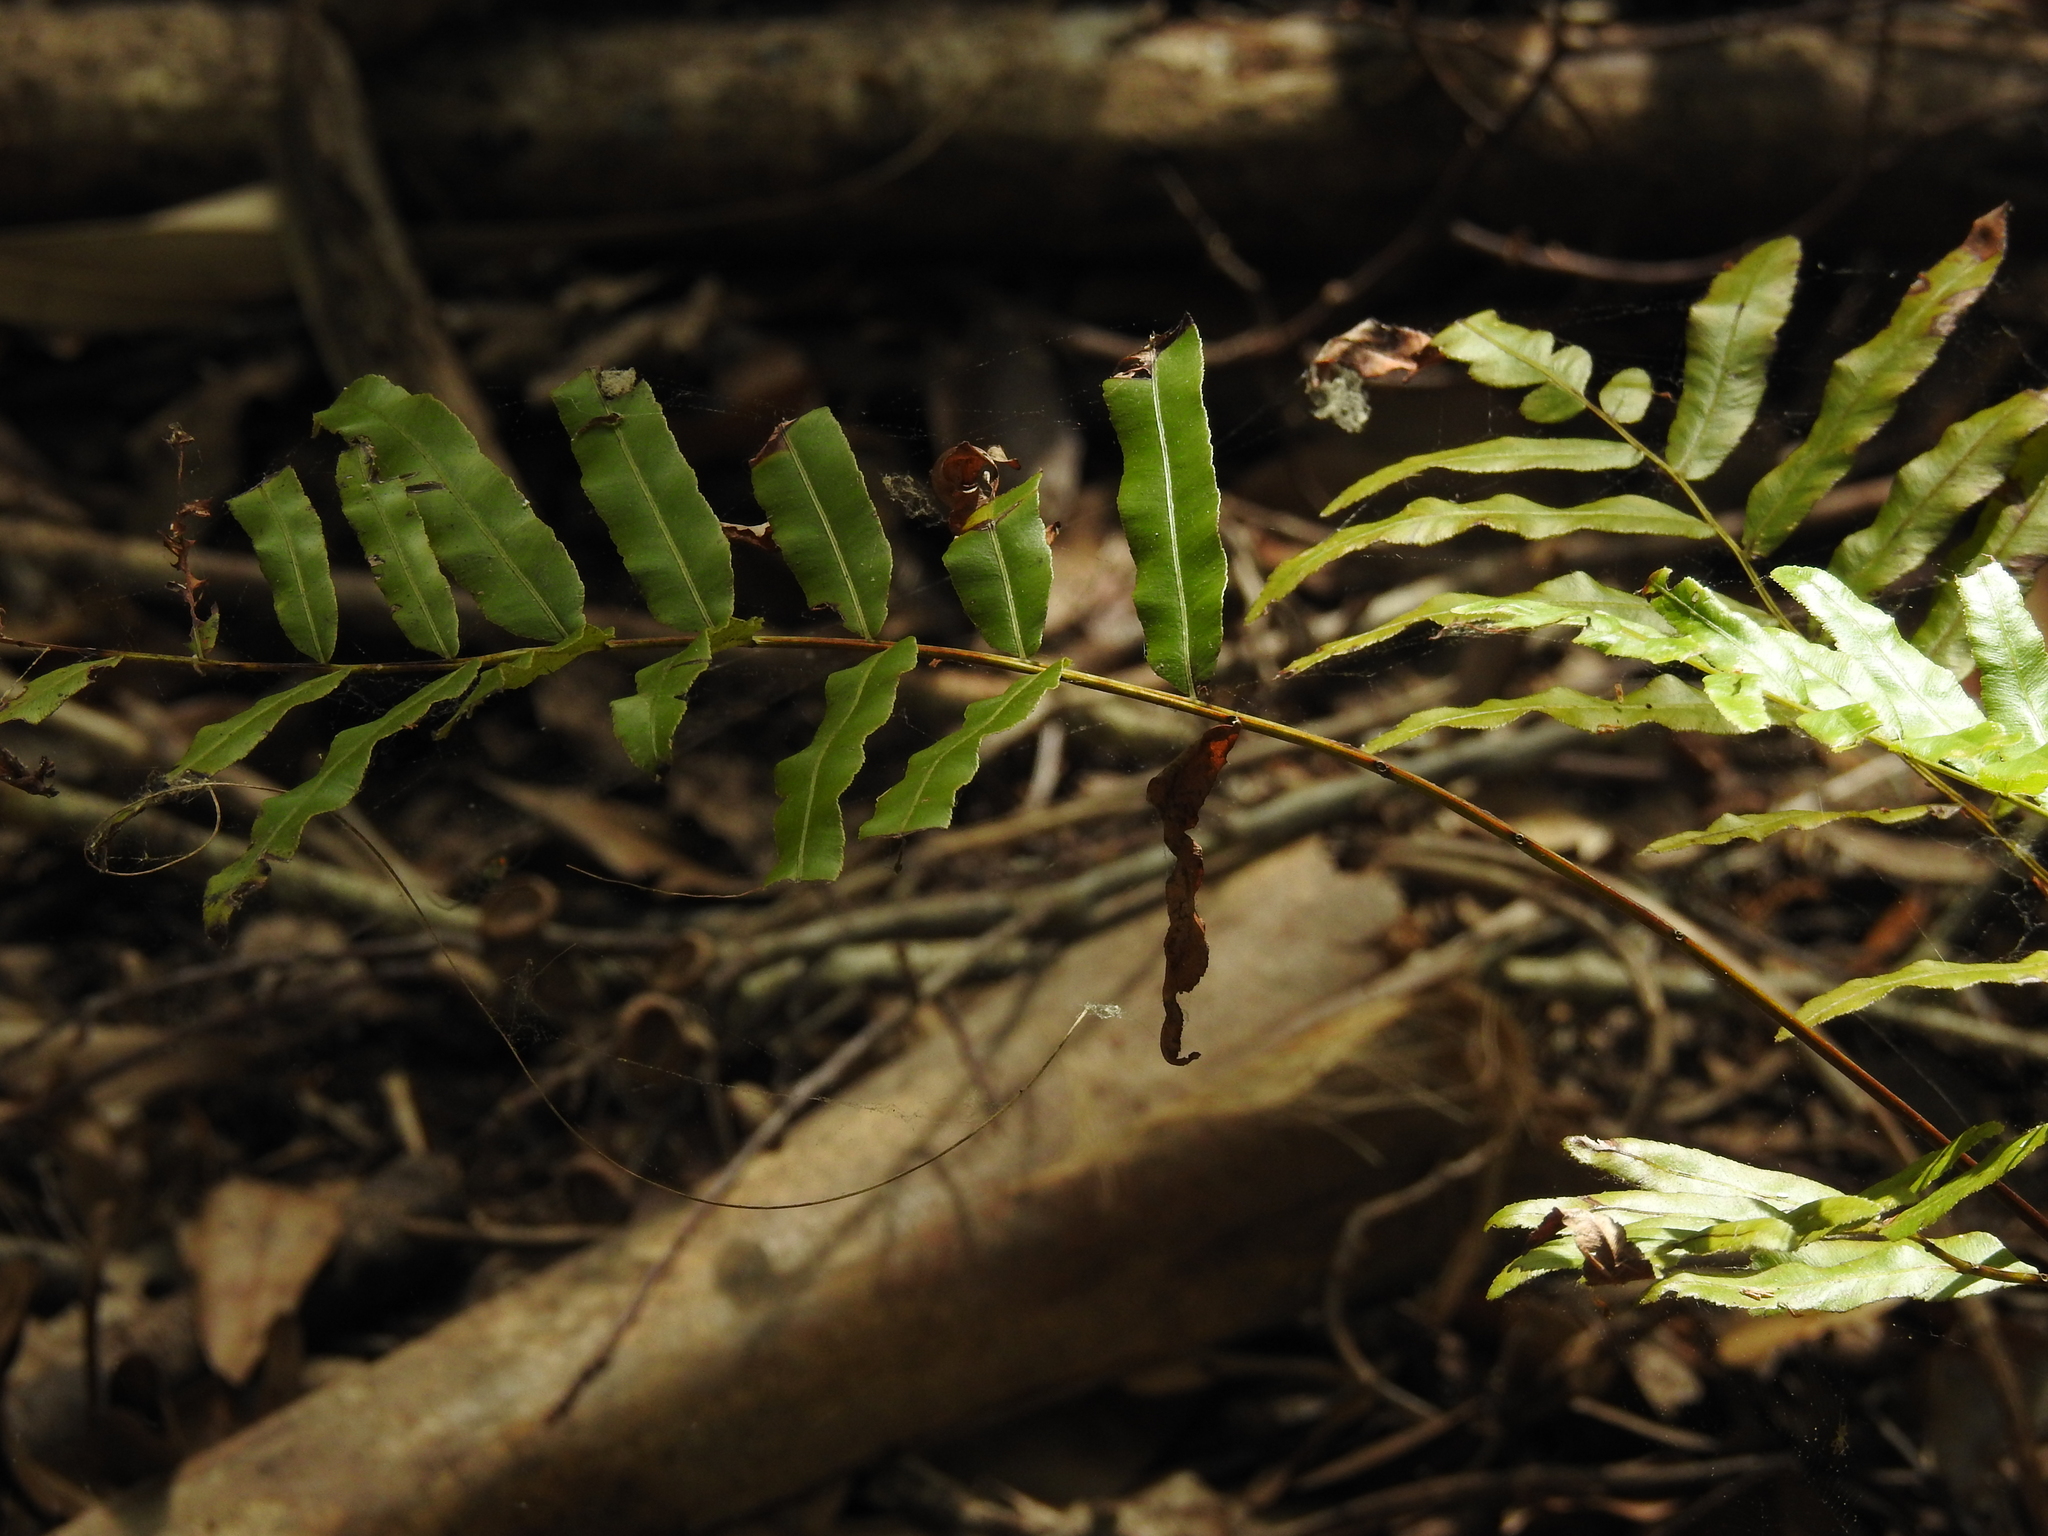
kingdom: Plantae
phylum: Tracheophyta
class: Polypodiopsida
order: Polypodiales
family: Blechnaceae
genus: Telmatoblechnum
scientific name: Telmatoblechnum serrulatum
